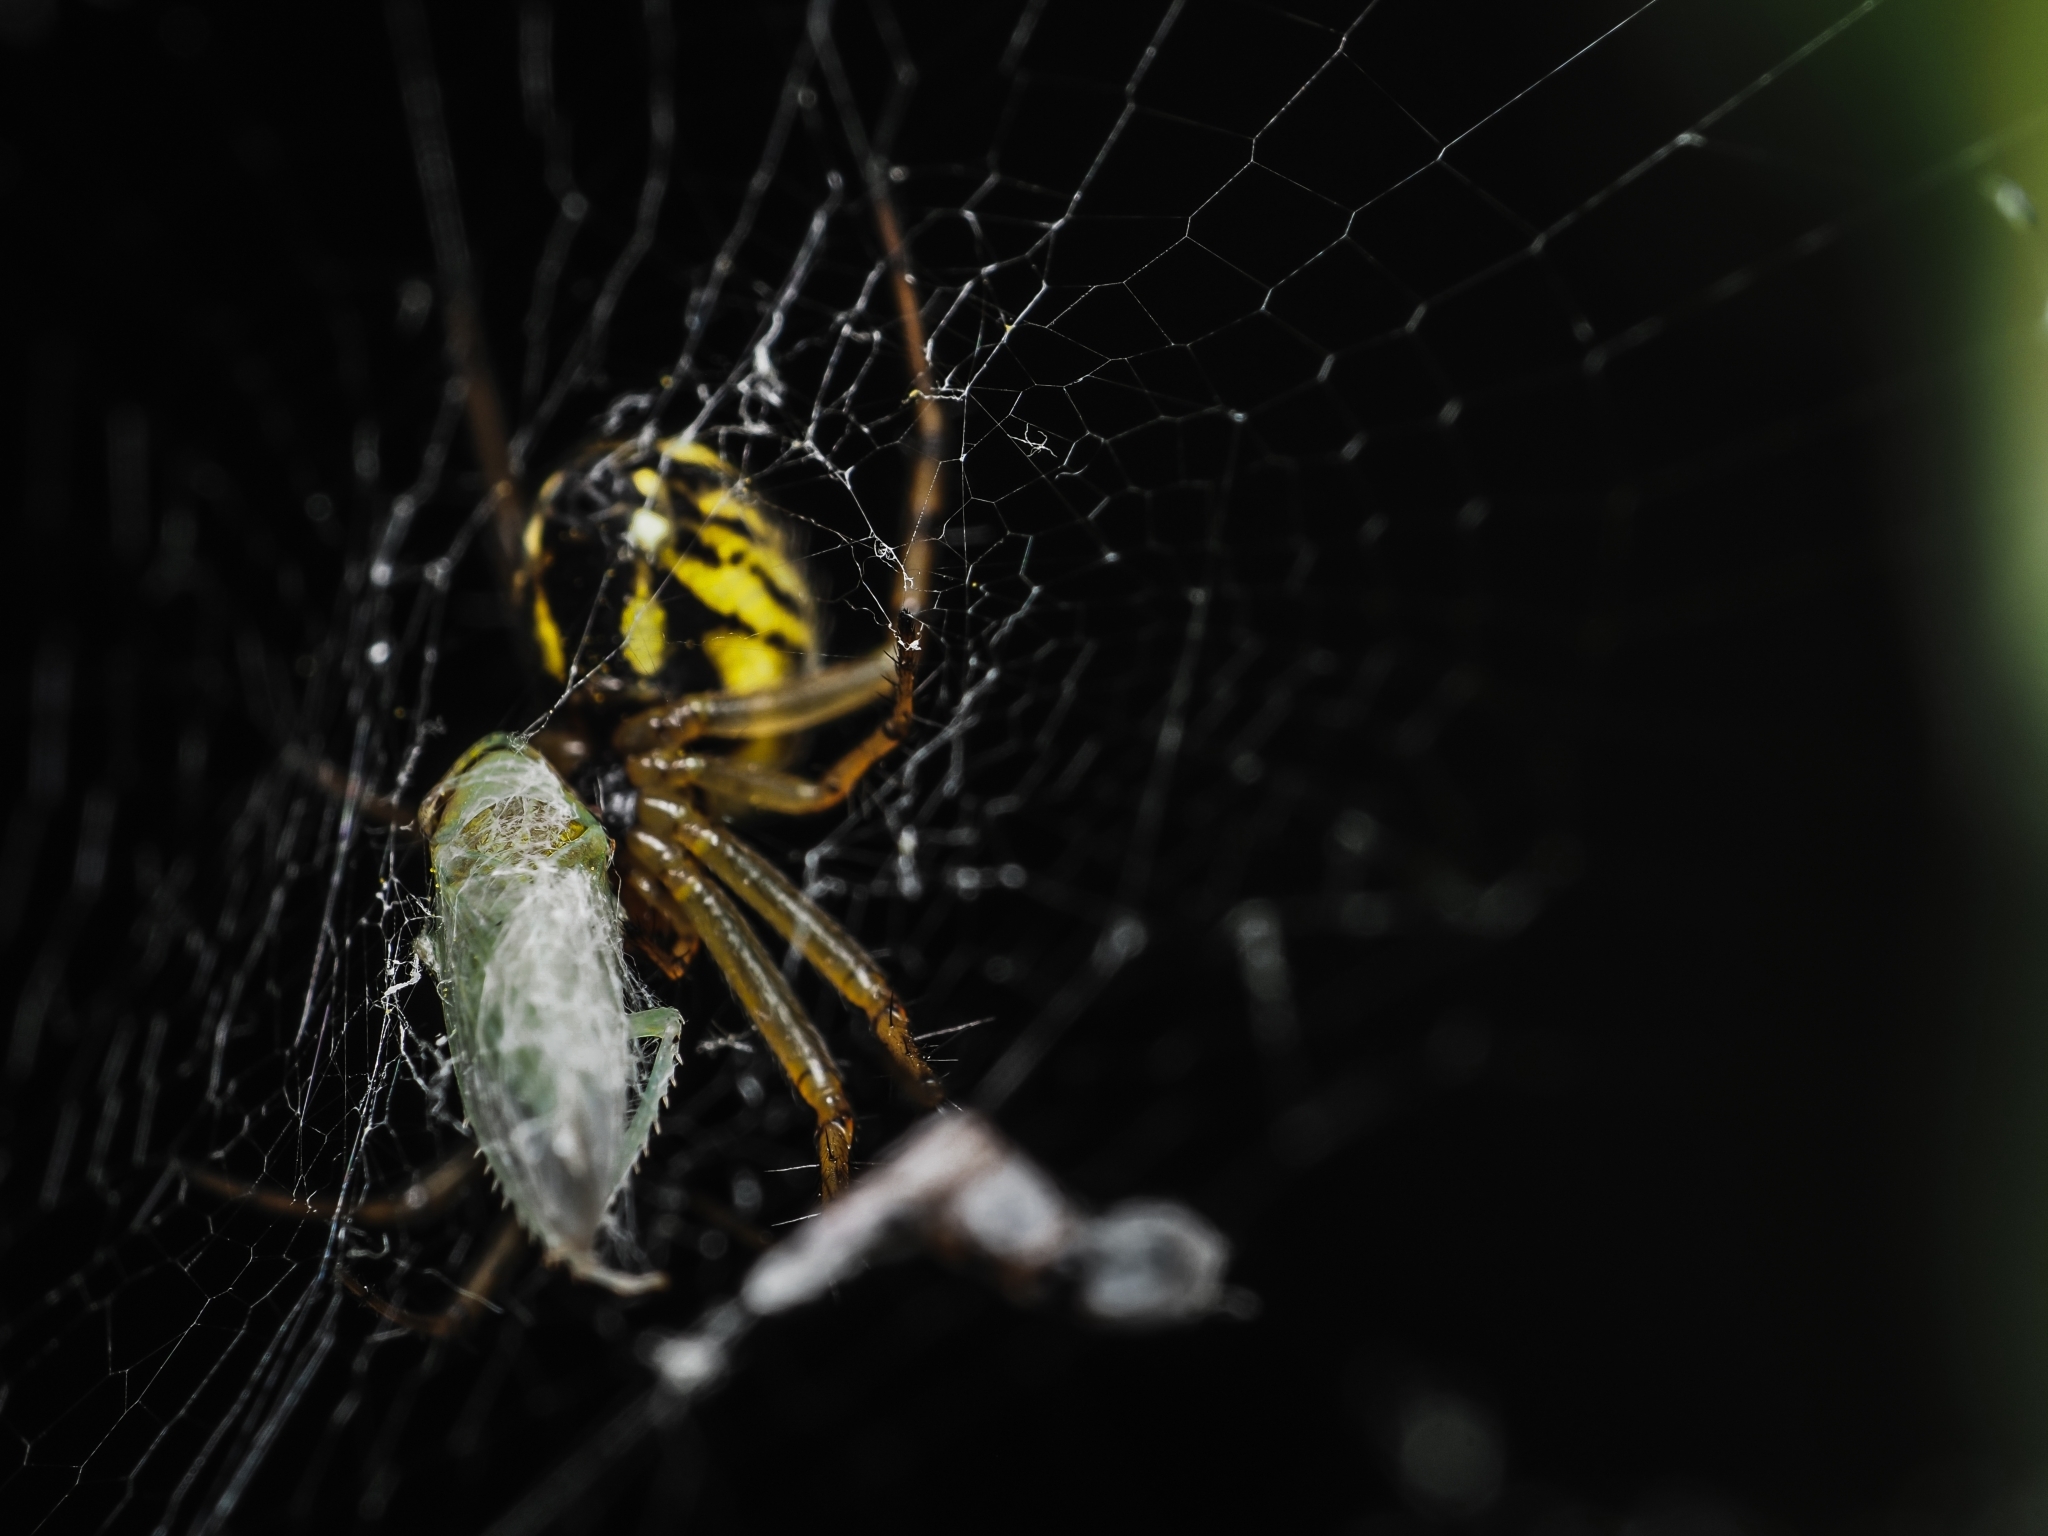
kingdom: Animalia
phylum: Arthropoda
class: Arachnida
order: Araneae
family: Araneidae
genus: Mangora
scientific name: Mangora acalypha
